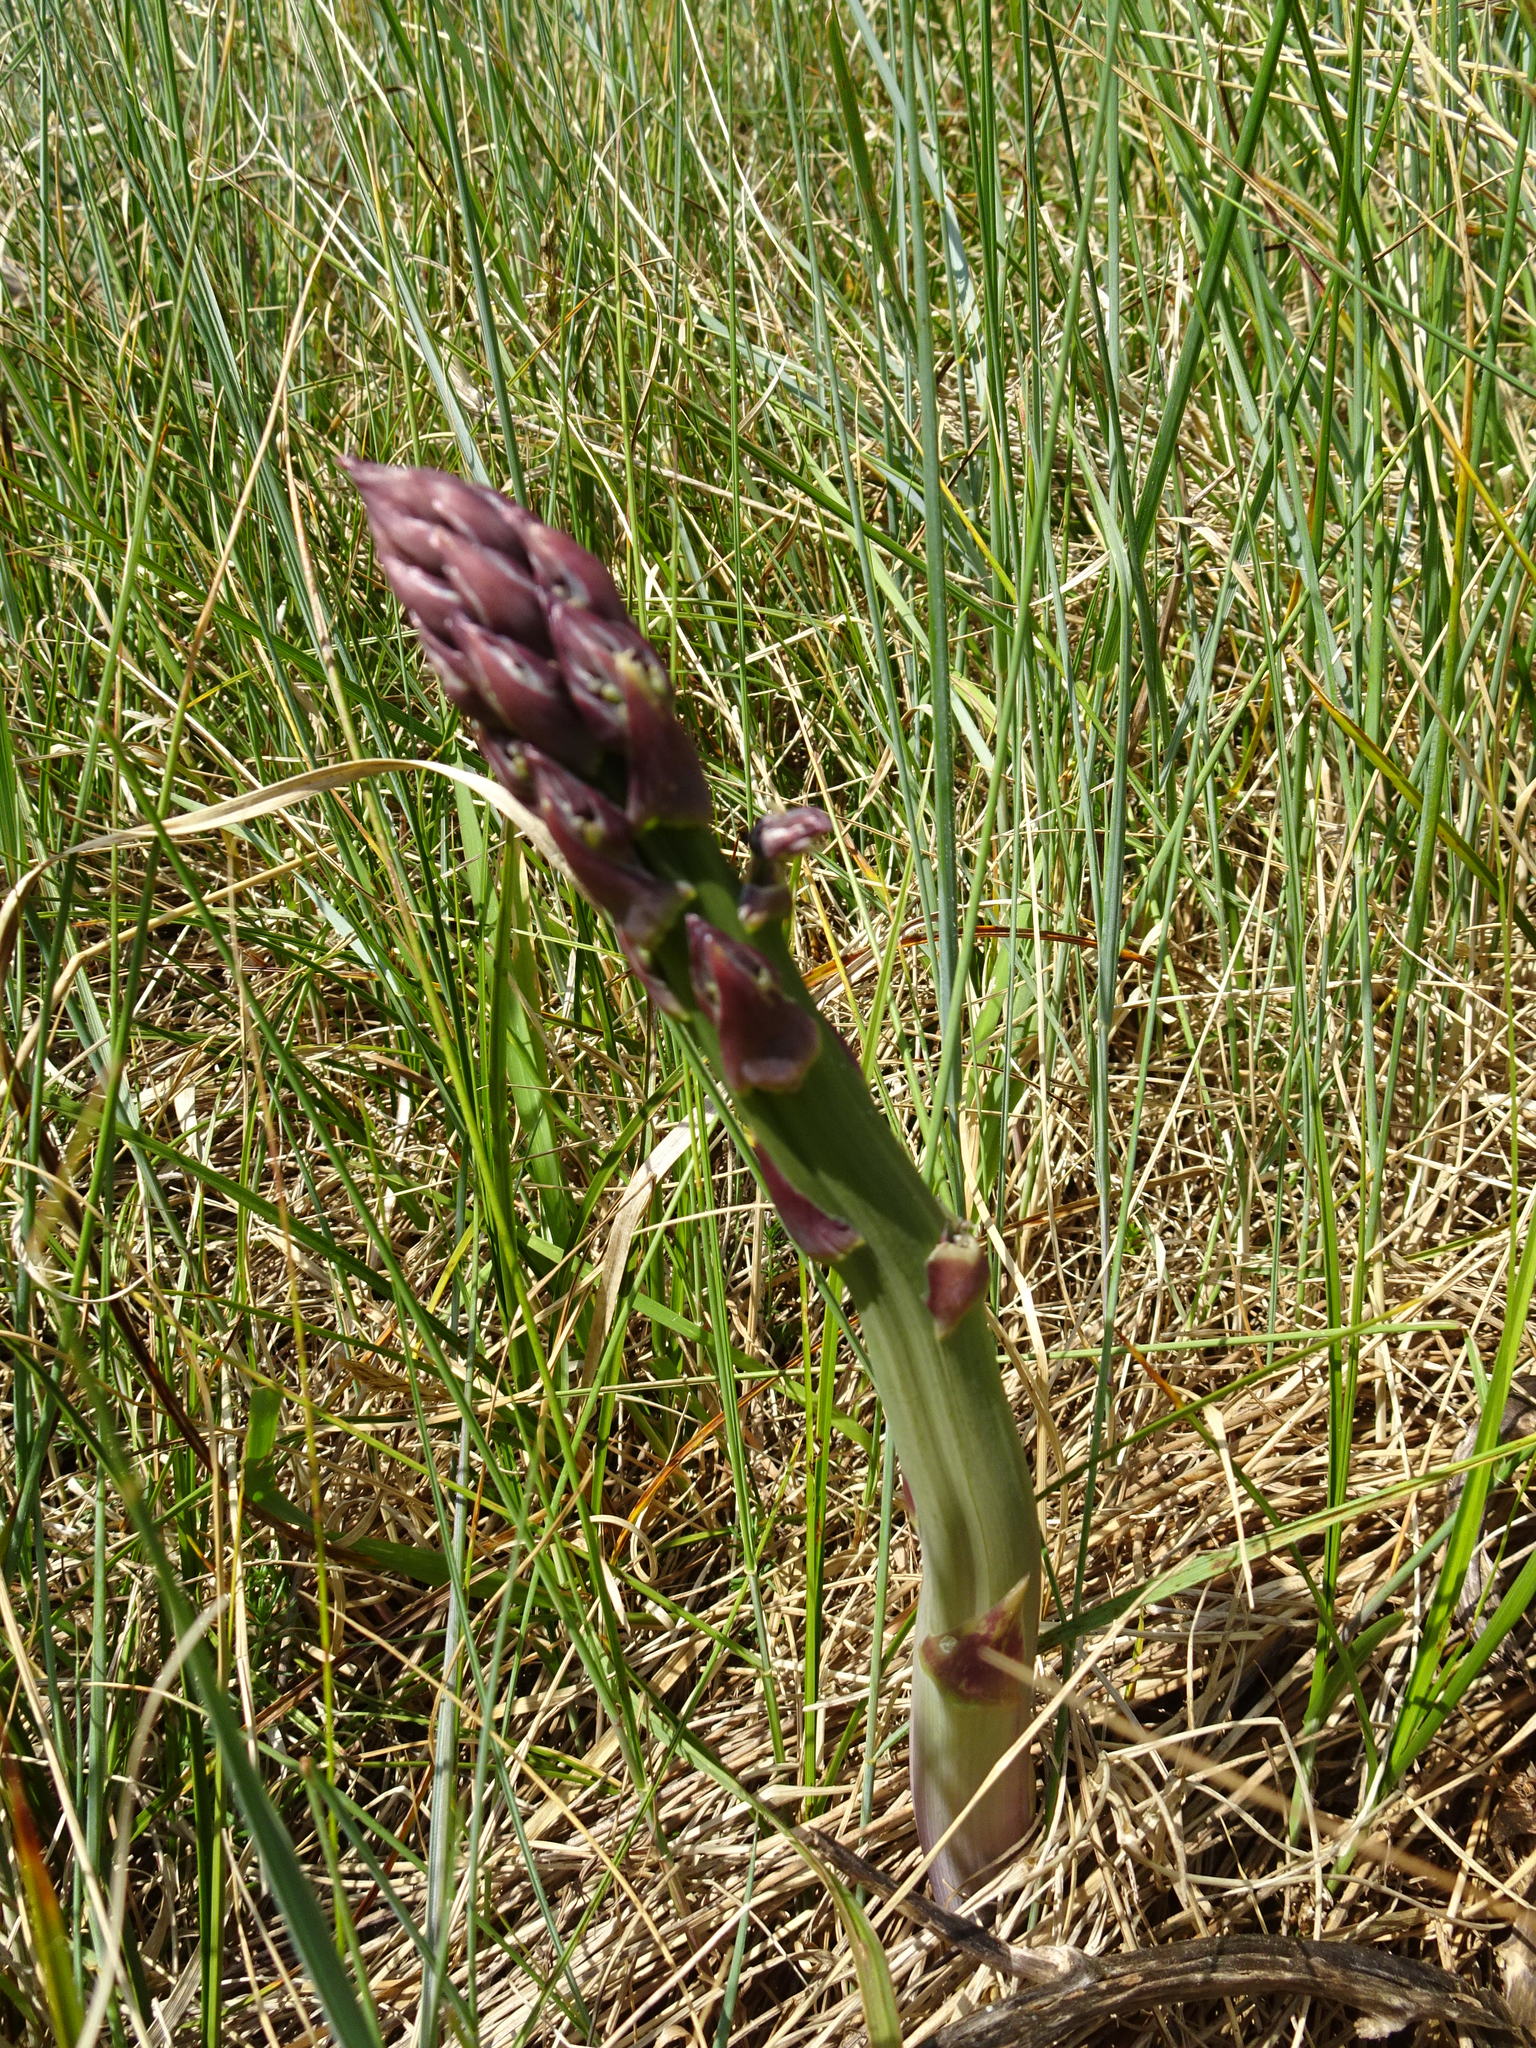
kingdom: Plantae
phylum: Tracheophyta
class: Liliopsida
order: Asparagales
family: Asparagaceae
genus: Asparagus
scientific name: Asparagus officinalis
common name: Garden asparagus
